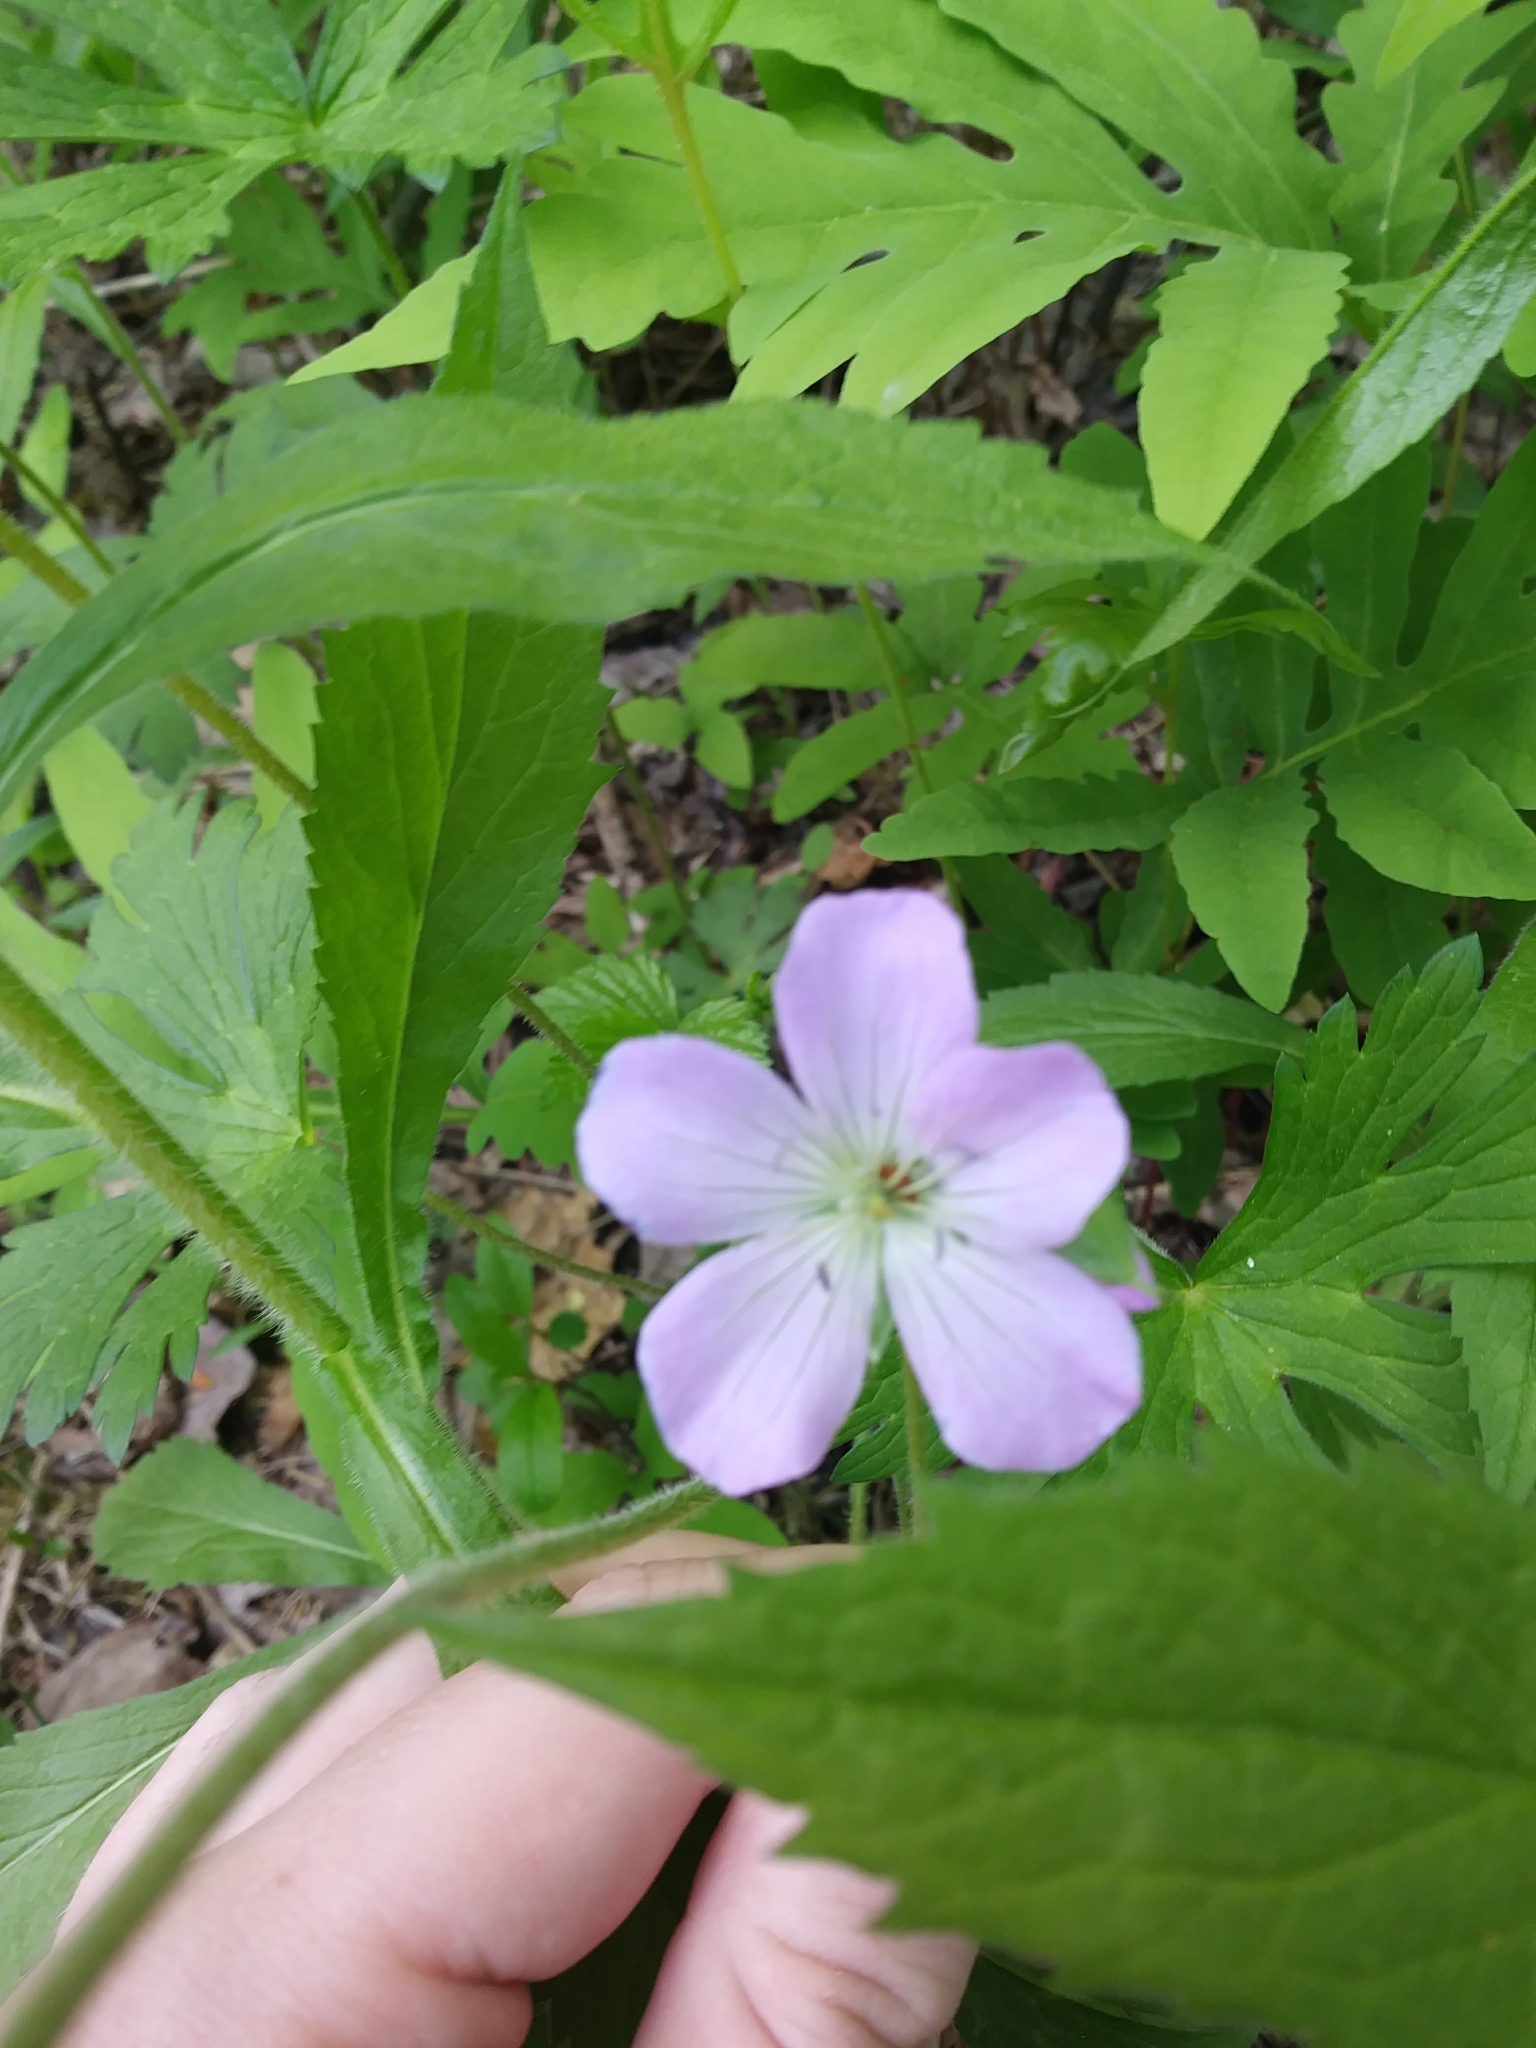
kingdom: Plantae
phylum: Tracheophyta
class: Magnoliopsida
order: Geraniales
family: Geraniaceae
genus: Geranium
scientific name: Geranium maculatum
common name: Spotted geranium
